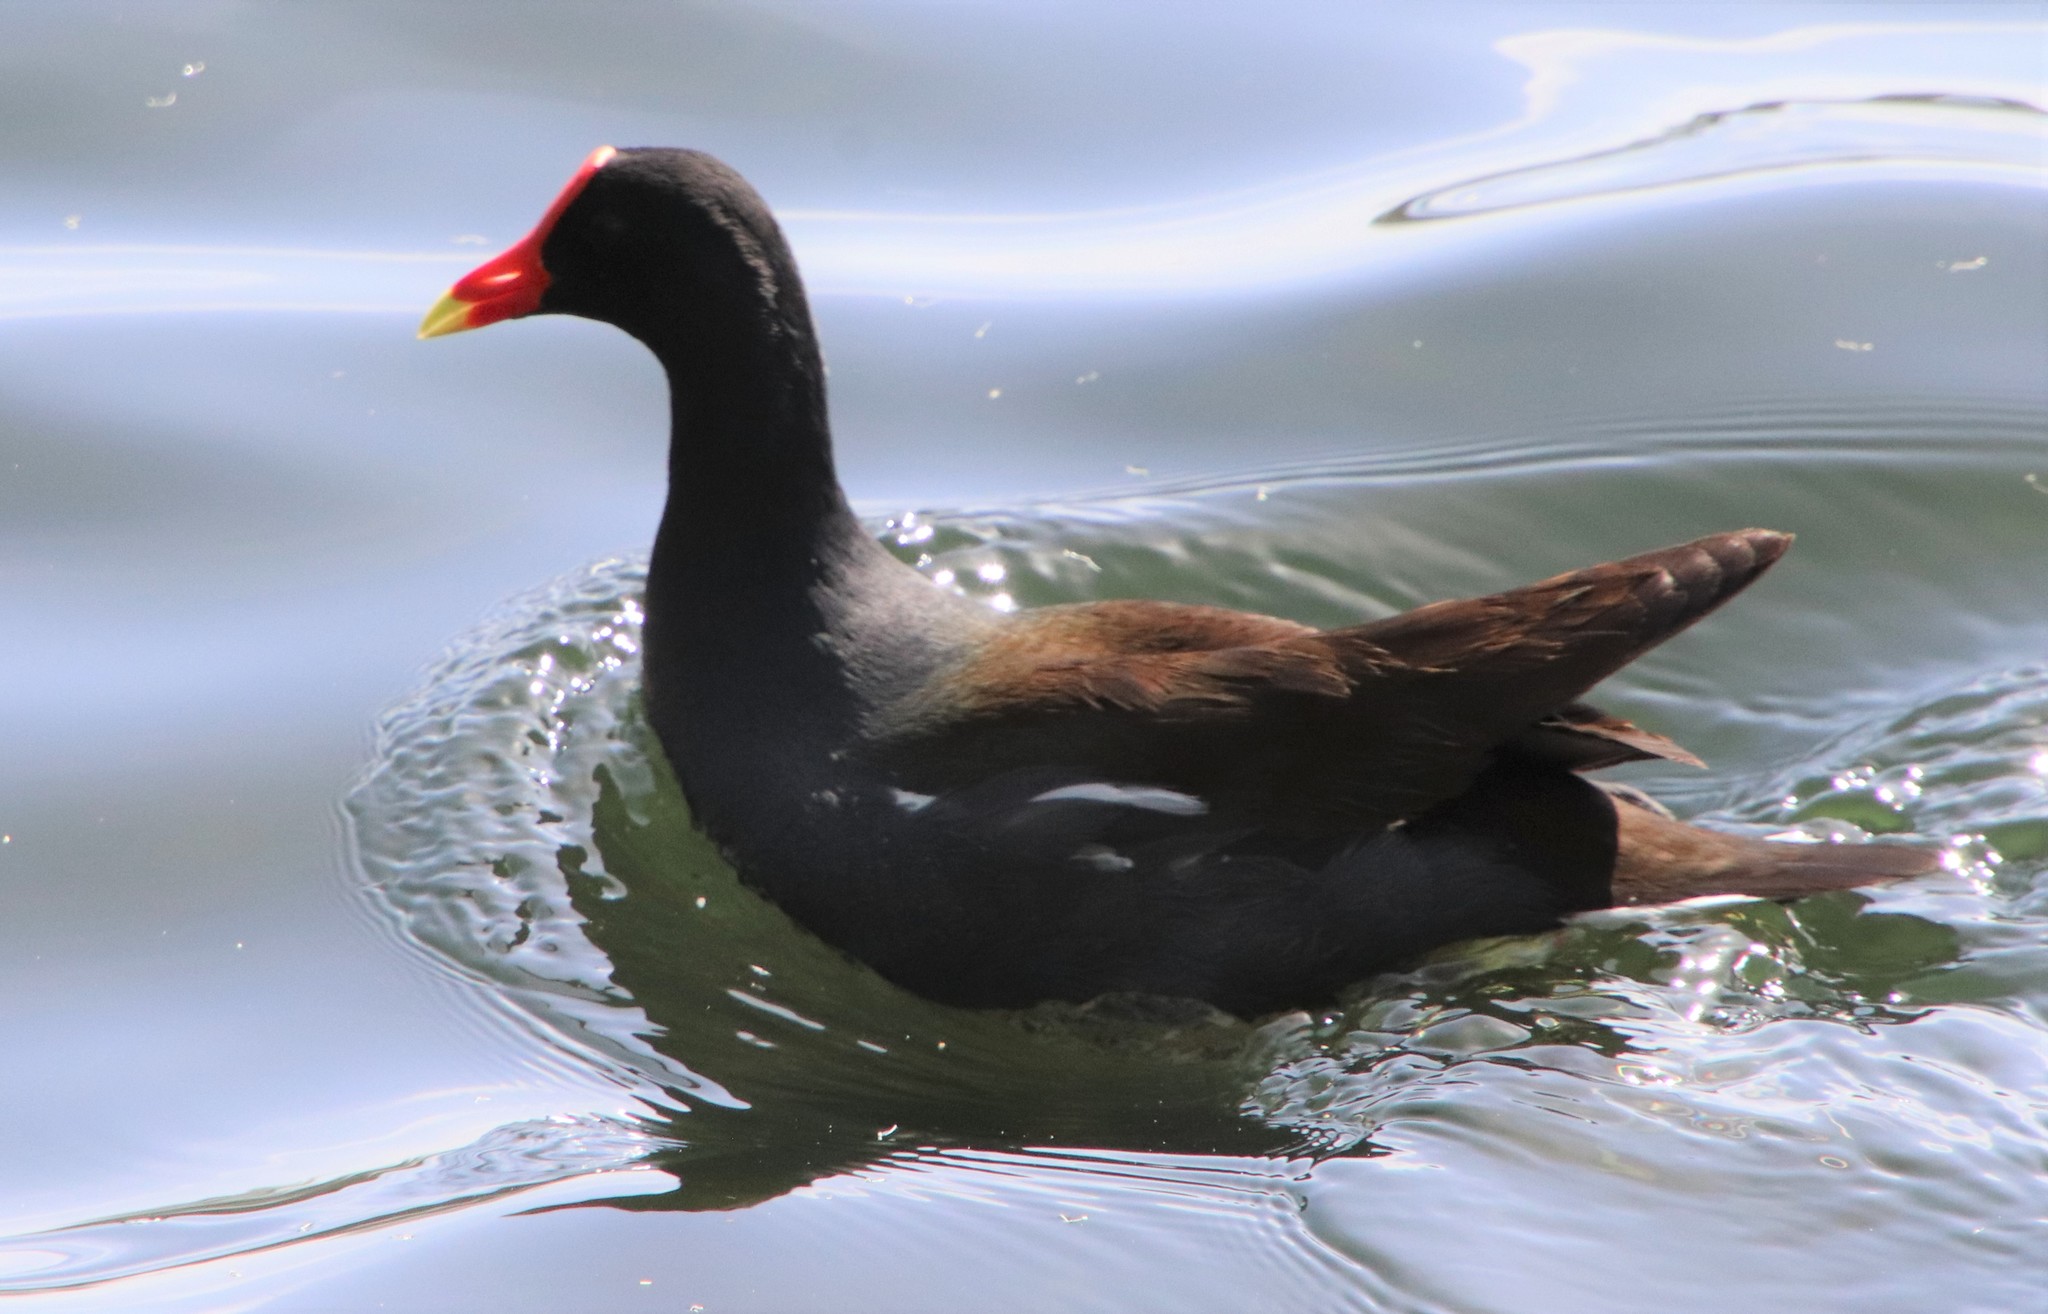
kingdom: Animalia
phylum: Chordata
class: Aves
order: Gruiformes
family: Rallidae
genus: Gallinula
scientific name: Gallinula chloropus
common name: Common moorhen
